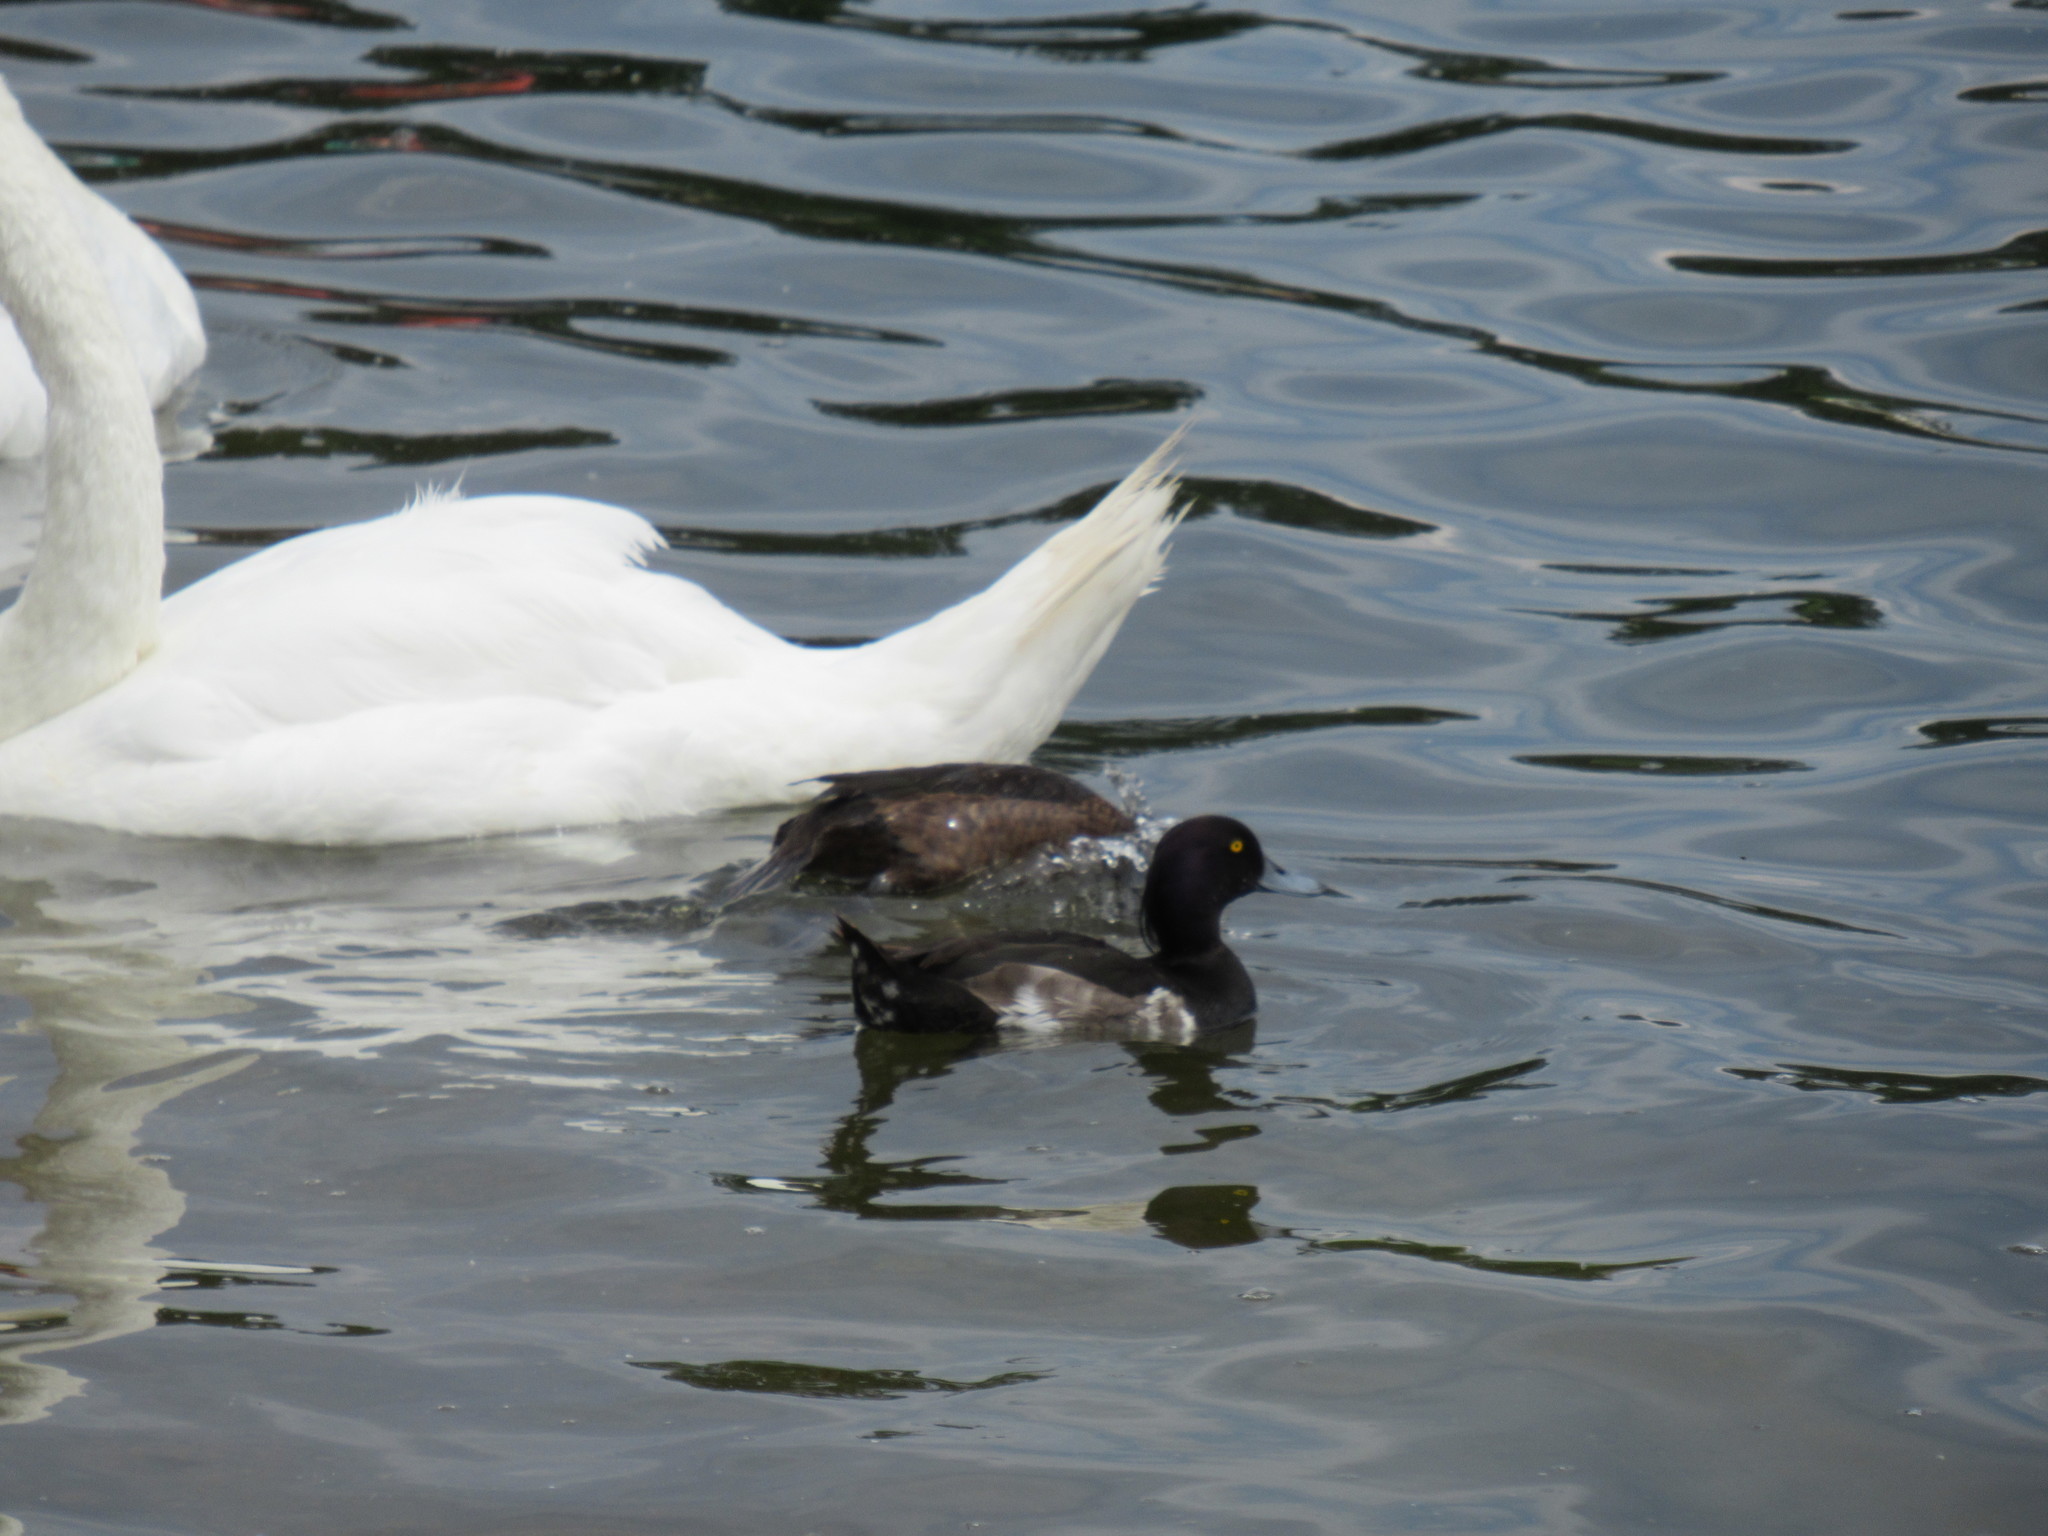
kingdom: Animalia
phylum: Chordata
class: Aves
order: Anseriformes
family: Anatidae
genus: Aythya
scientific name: Aythya fuligula
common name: Tufted duck
